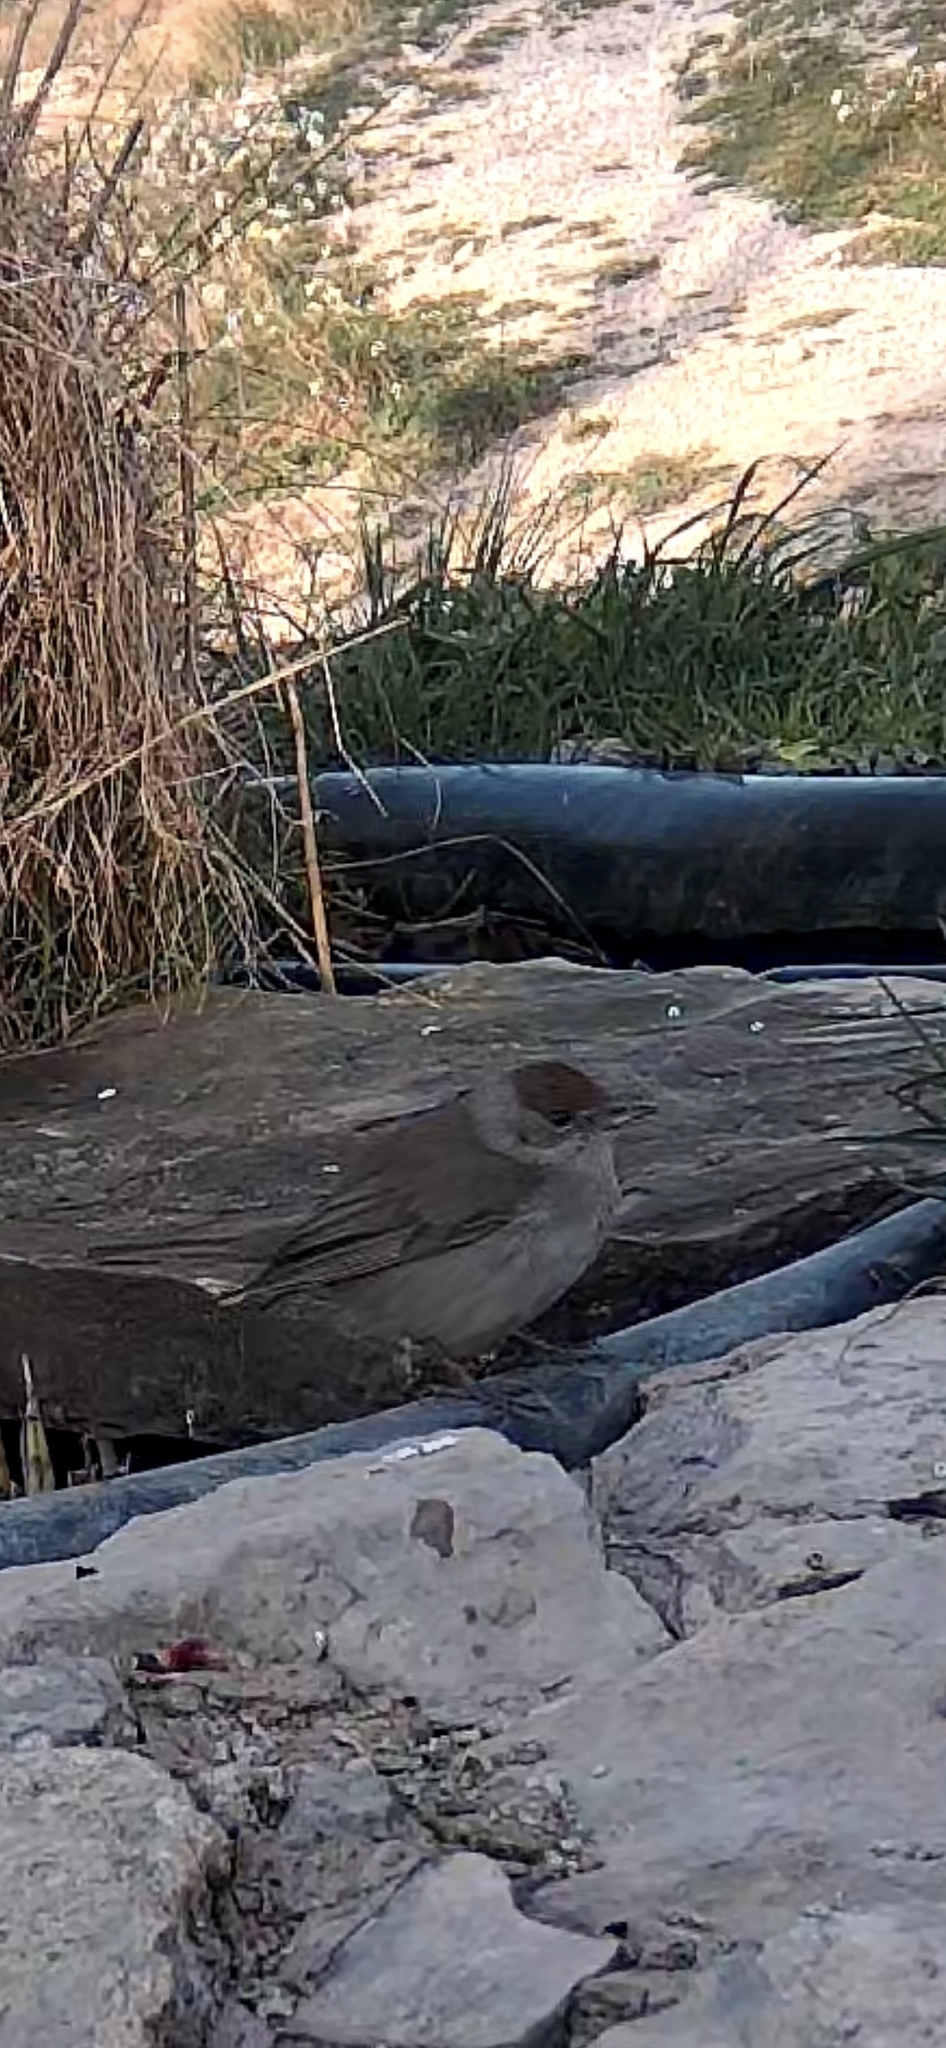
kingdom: Animalia
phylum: Chordata
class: Aves
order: Passeriformes
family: Sylviidae
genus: Sylvia
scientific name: Sylvia atricapilla
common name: Eurasian blackcap
